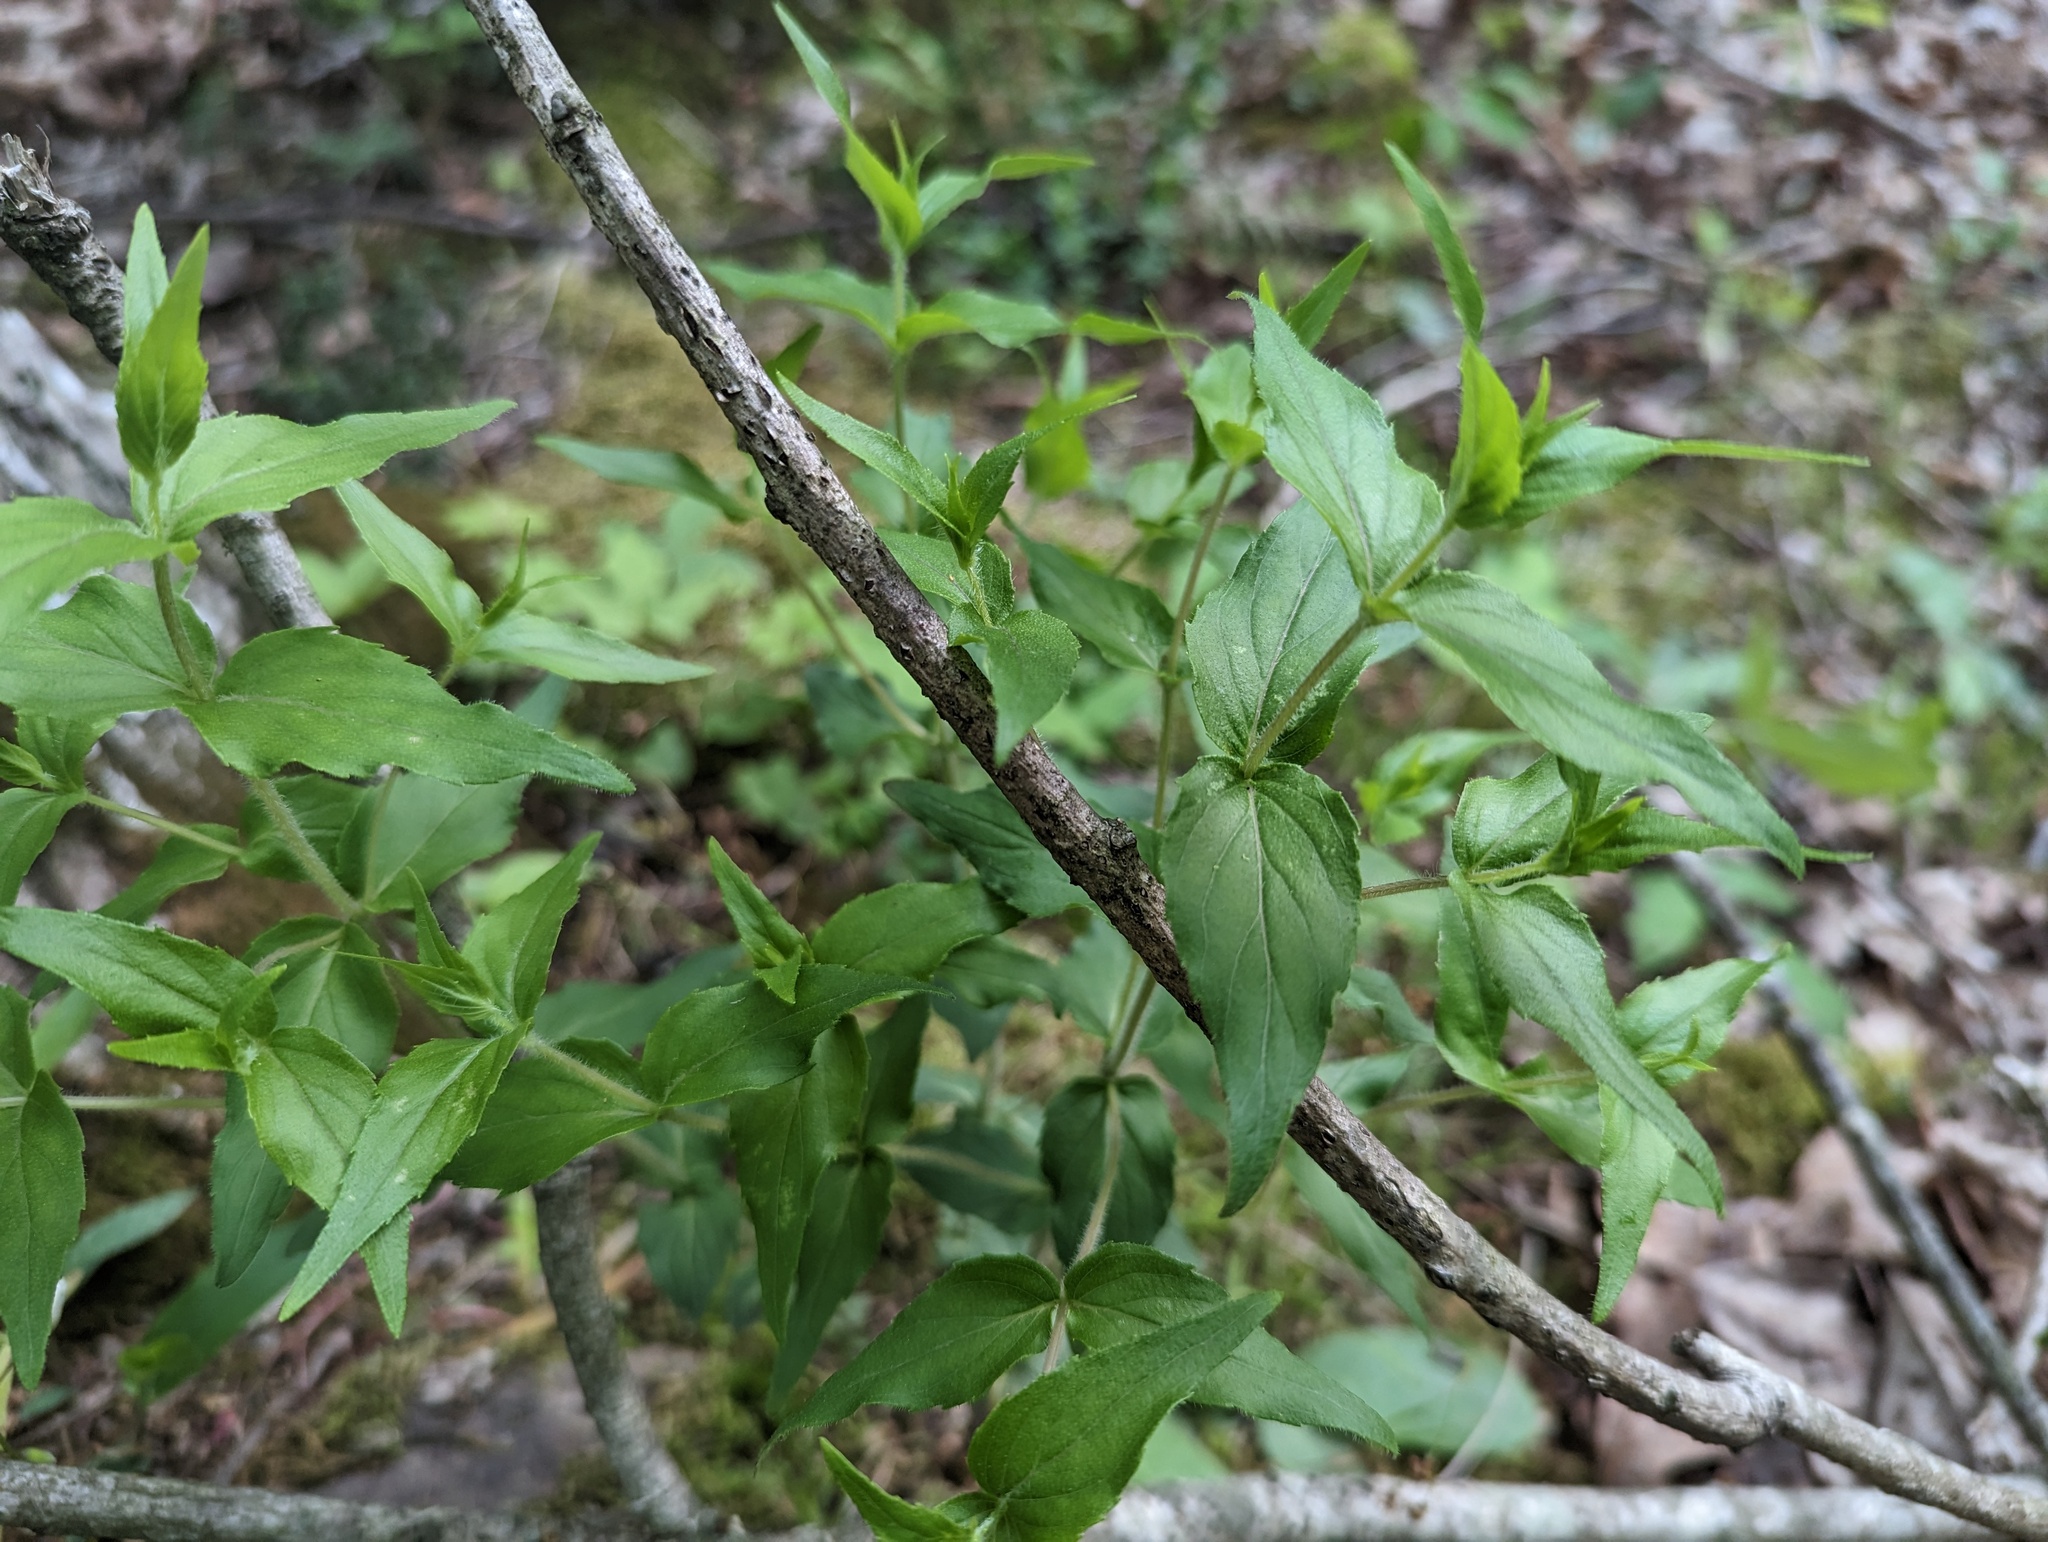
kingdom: Plantae
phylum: Tracheophyta
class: Magnoliopsida
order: Lamiales
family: Lamiaceae
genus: Cunila
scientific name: Cunila origanoides
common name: American dittany
